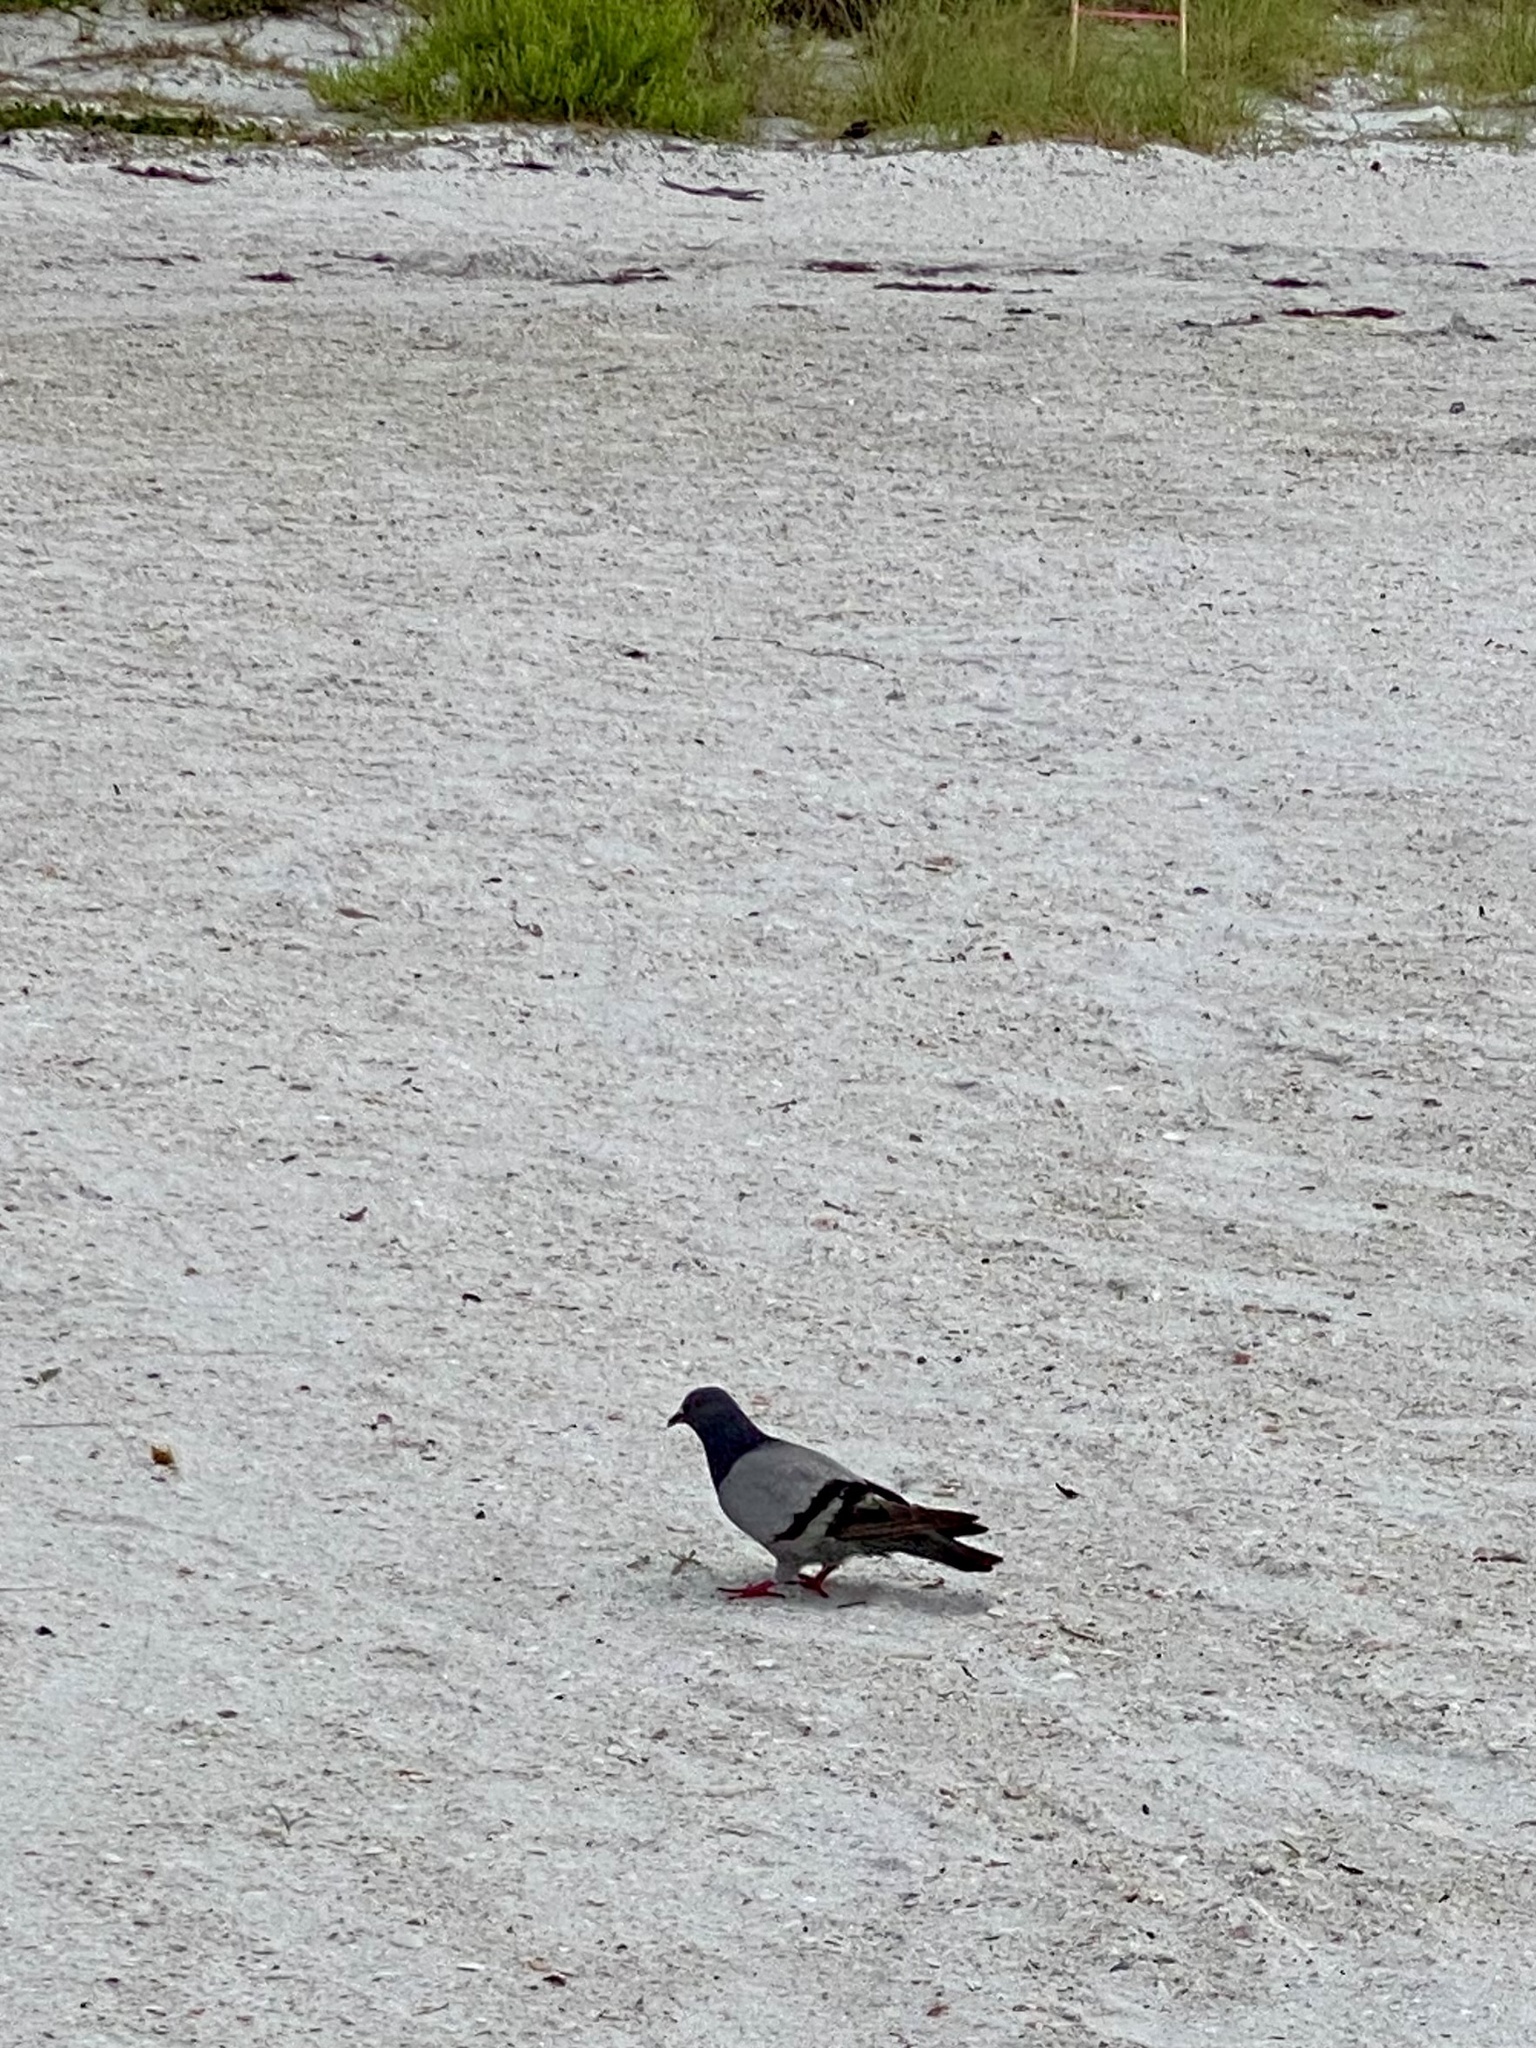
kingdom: Animalia
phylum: Chordata
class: Aves
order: Columbiformes
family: Columbidae
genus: Columba
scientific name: Columba livia
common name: Rock pigeon
